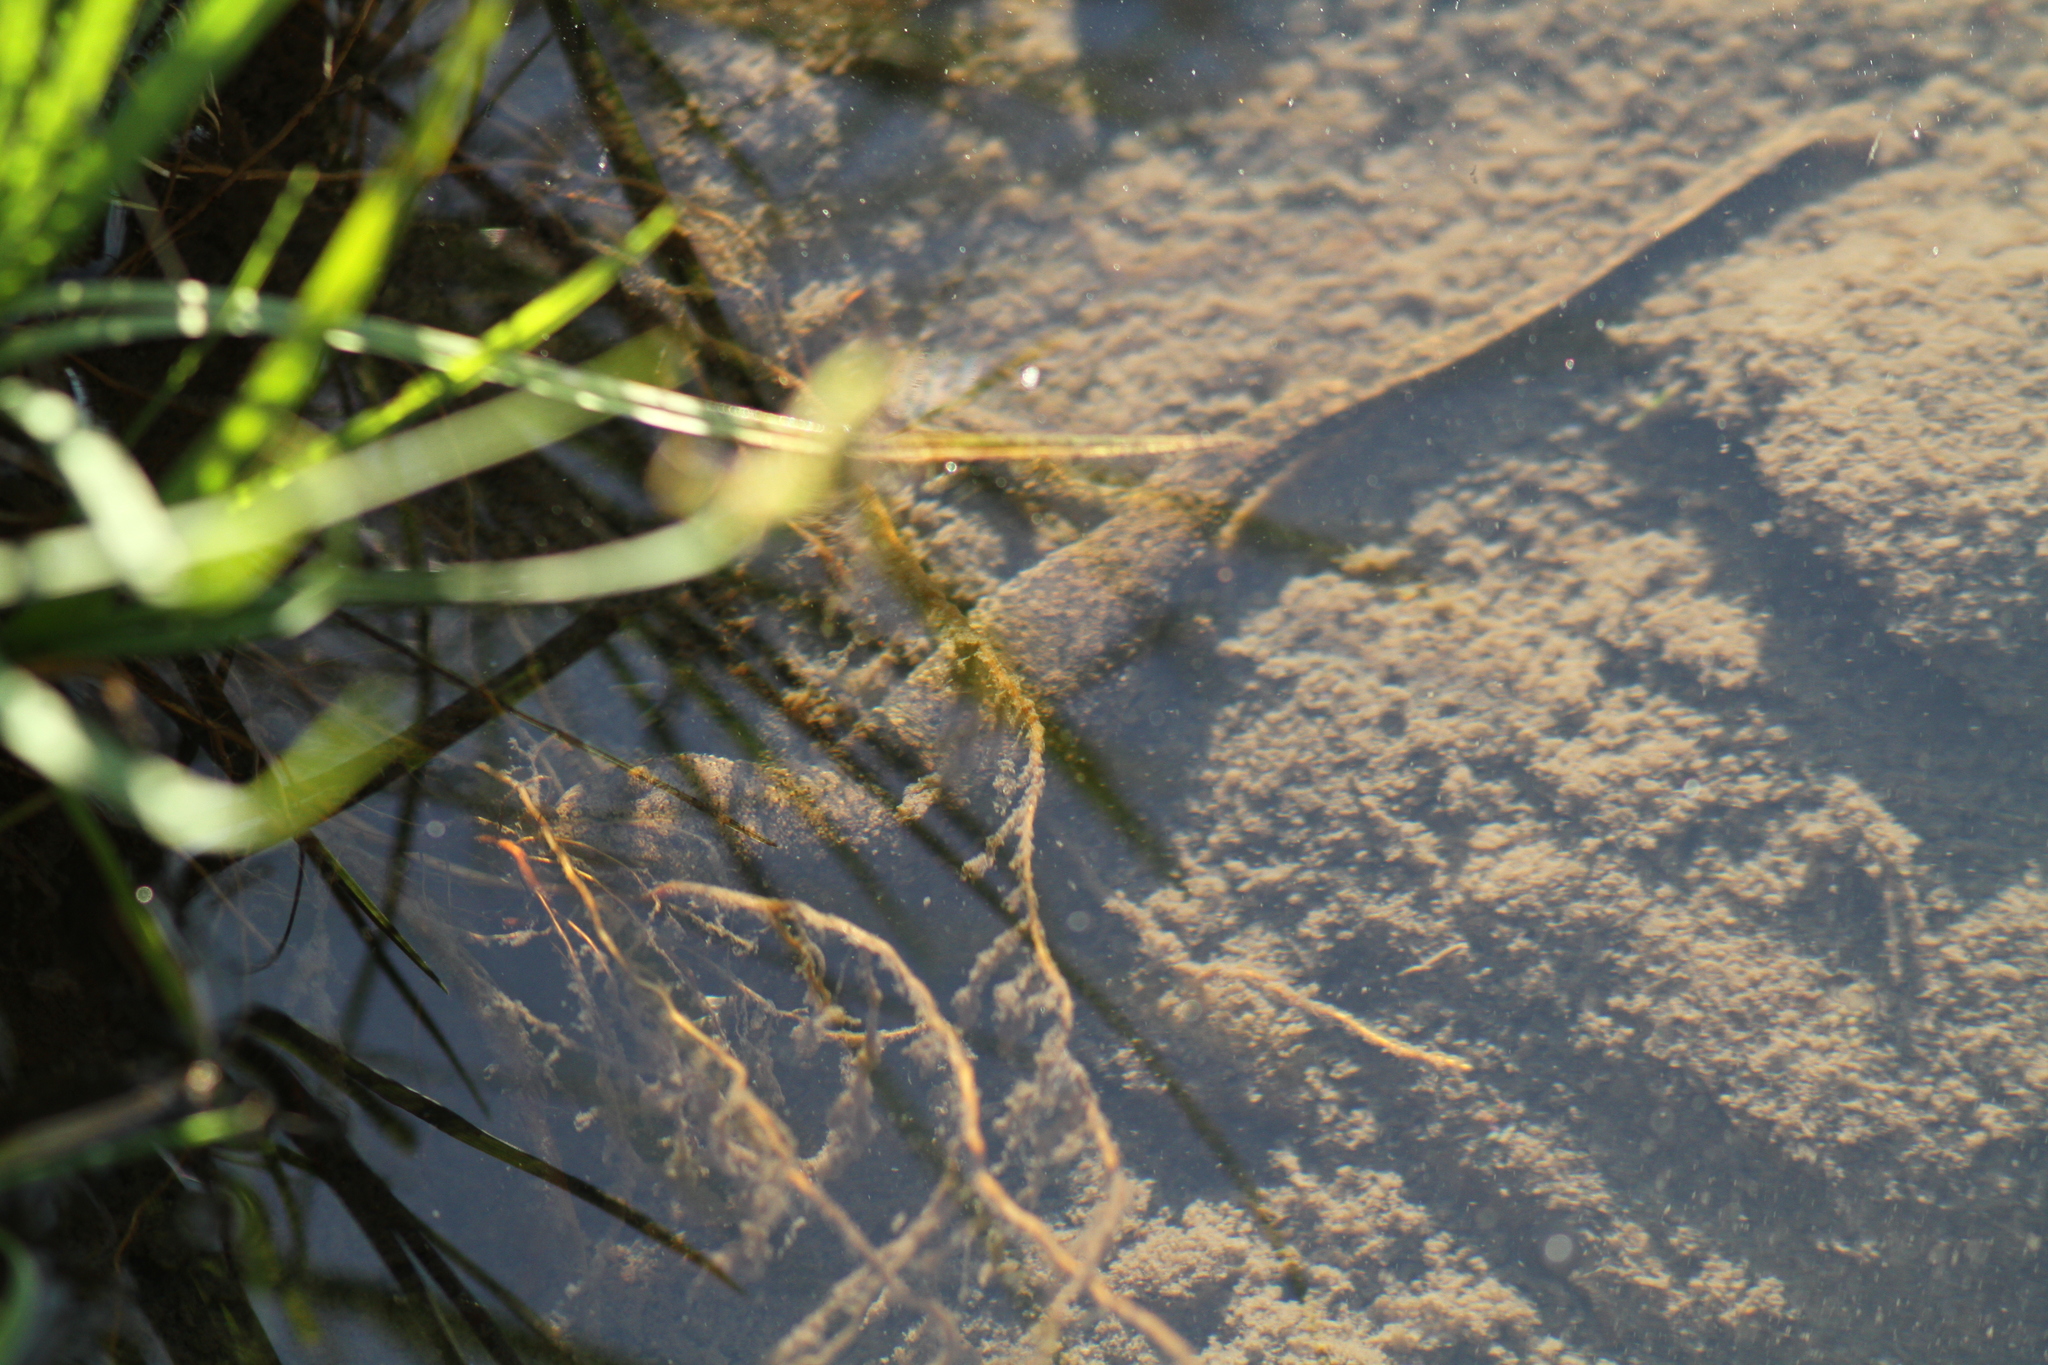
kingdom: Animalia
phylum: Chordata
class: Amphibia
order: Caudata
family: Salamandridae
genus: Calotriton
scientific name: Calotriton asper
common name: Pyrenean brook salamander
